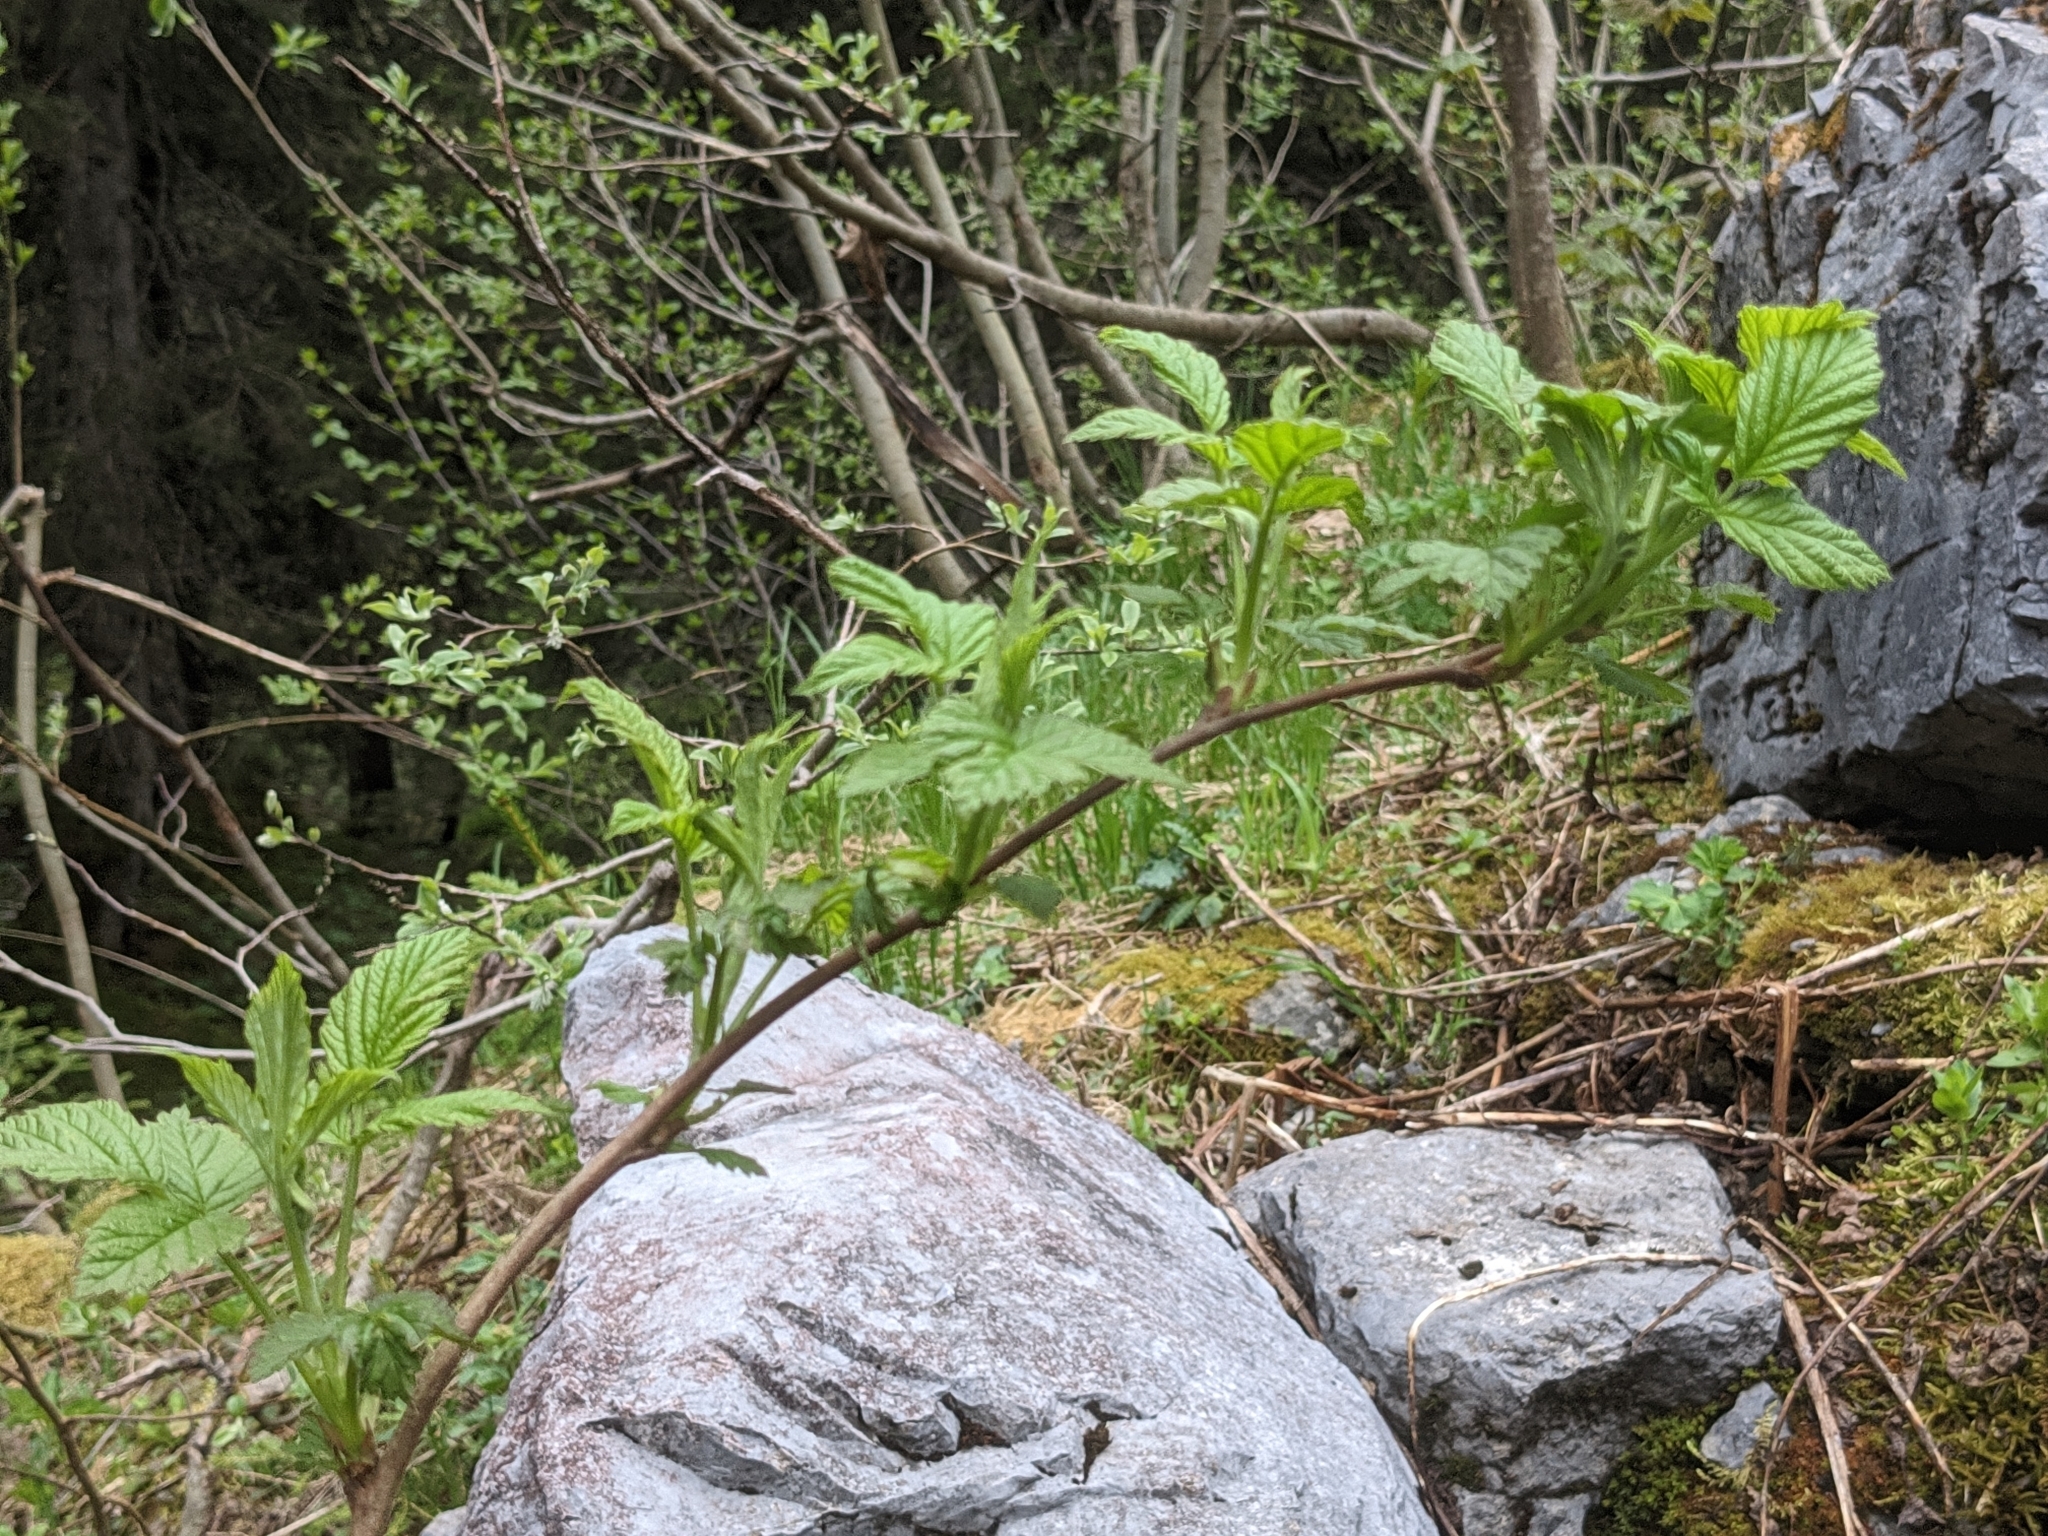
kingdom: Plantae
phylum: Tracheophyta
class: Magnoliopsida
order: Rosales
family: Rosaceae
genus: Rubus
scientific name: Rubus idaeus
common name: Raspberry
